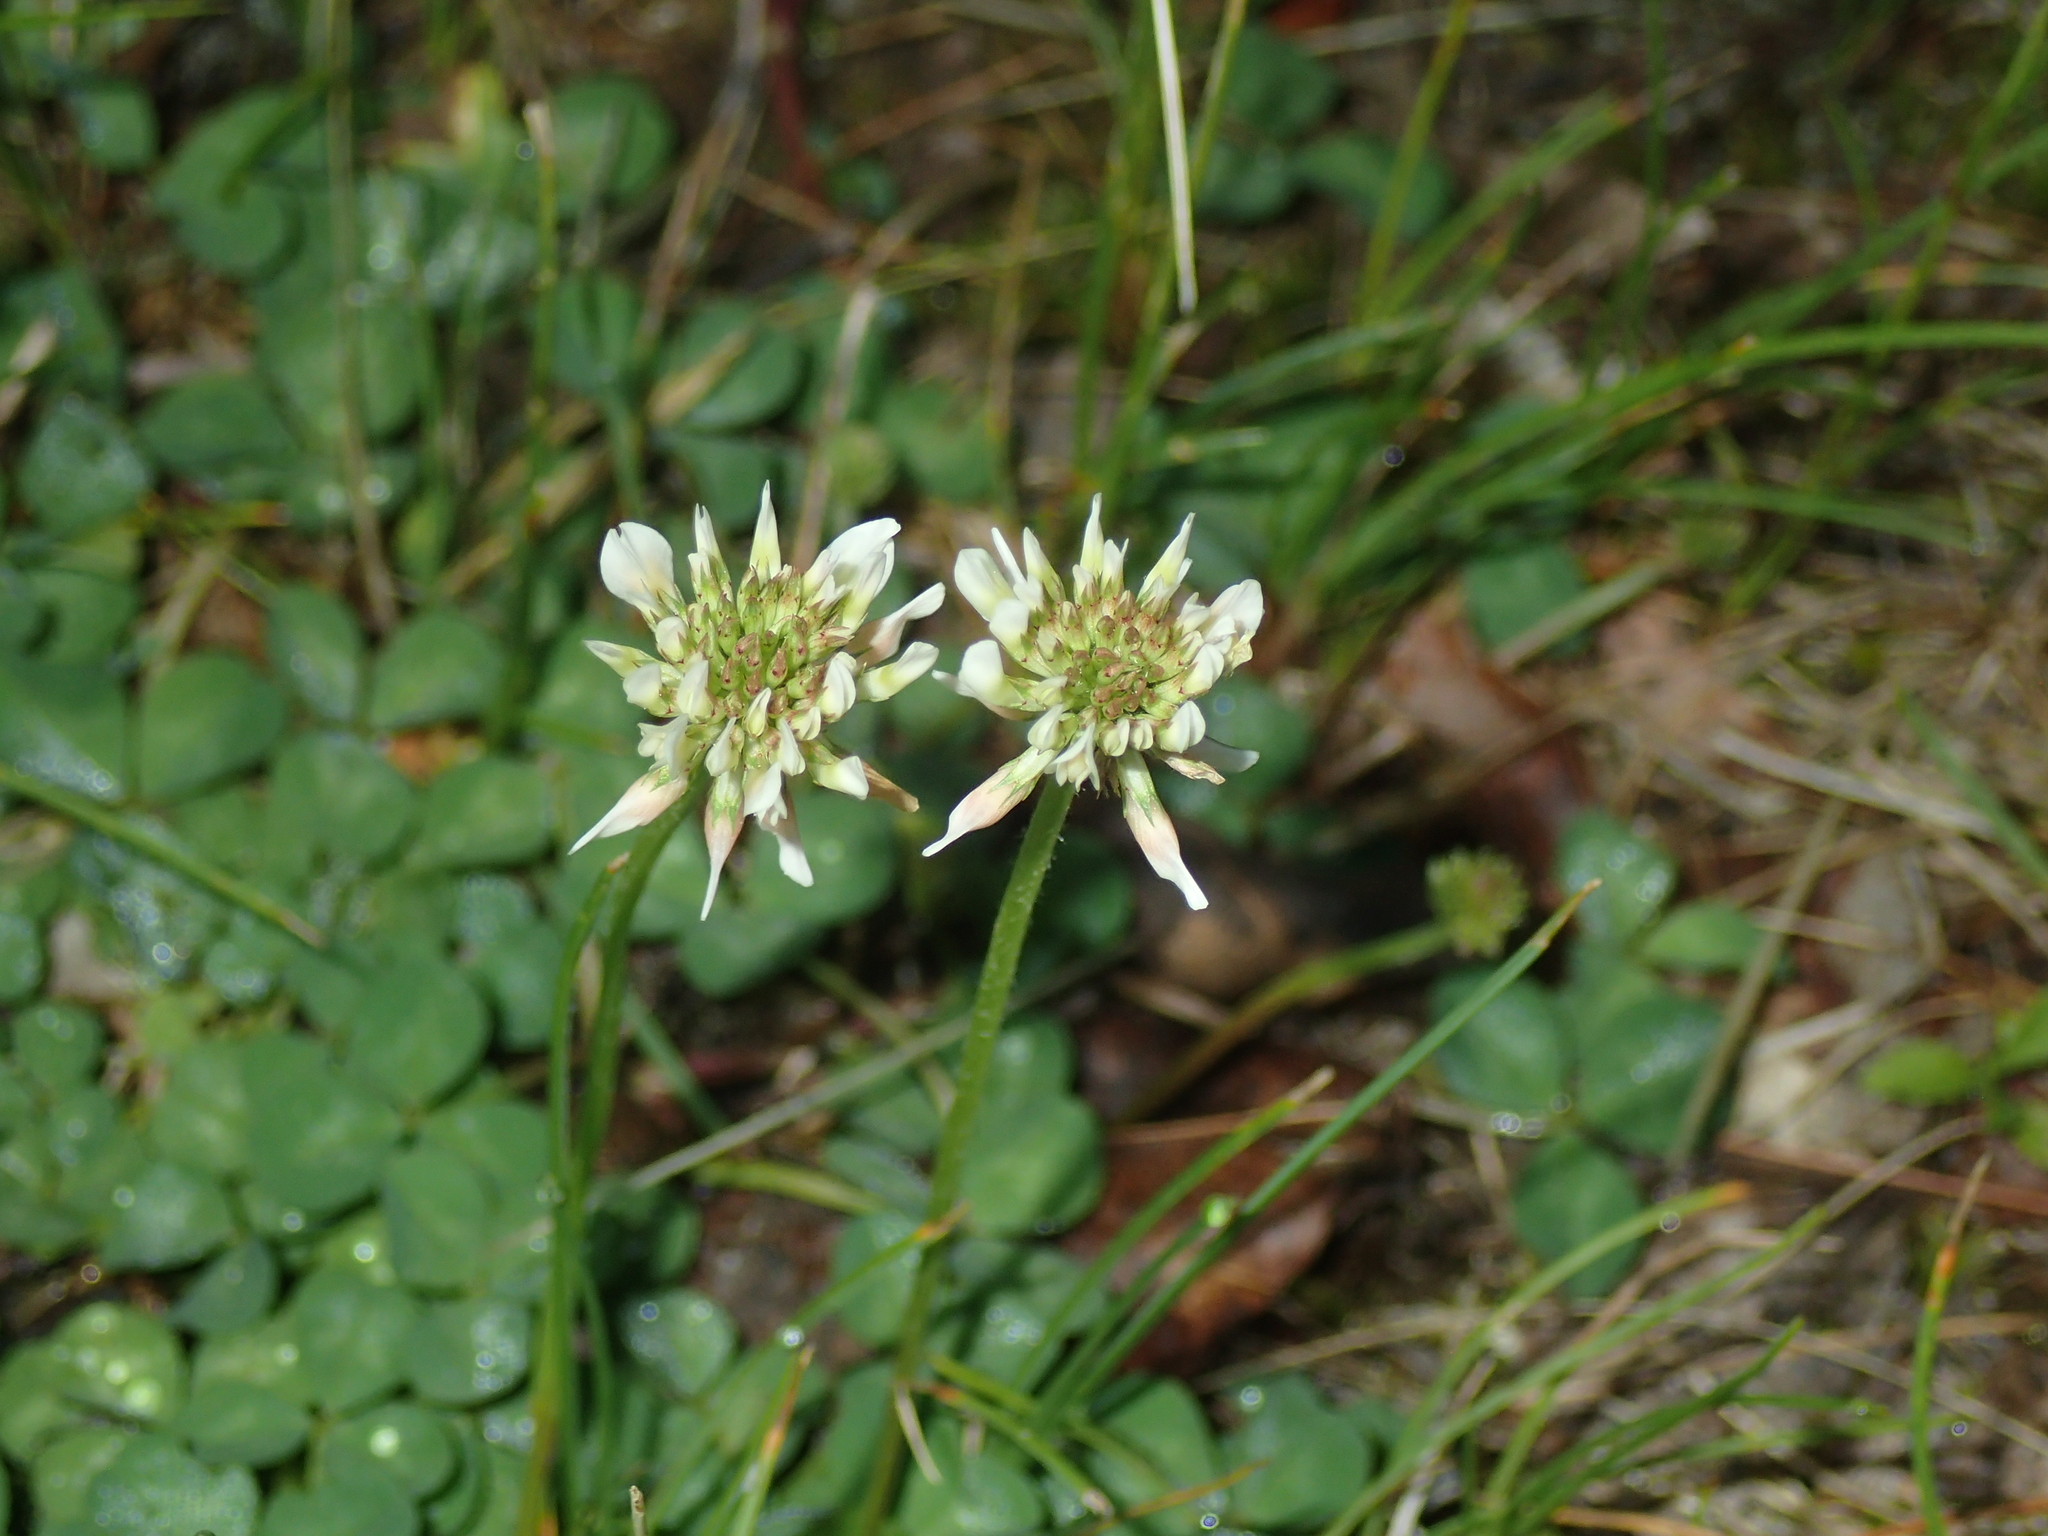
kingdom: Plantae
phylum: Tracheophyta
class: Magnoliopsida
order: Fabales
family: Fabaceae
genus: Trifolium
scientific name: Trifolium repens
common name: White clover
